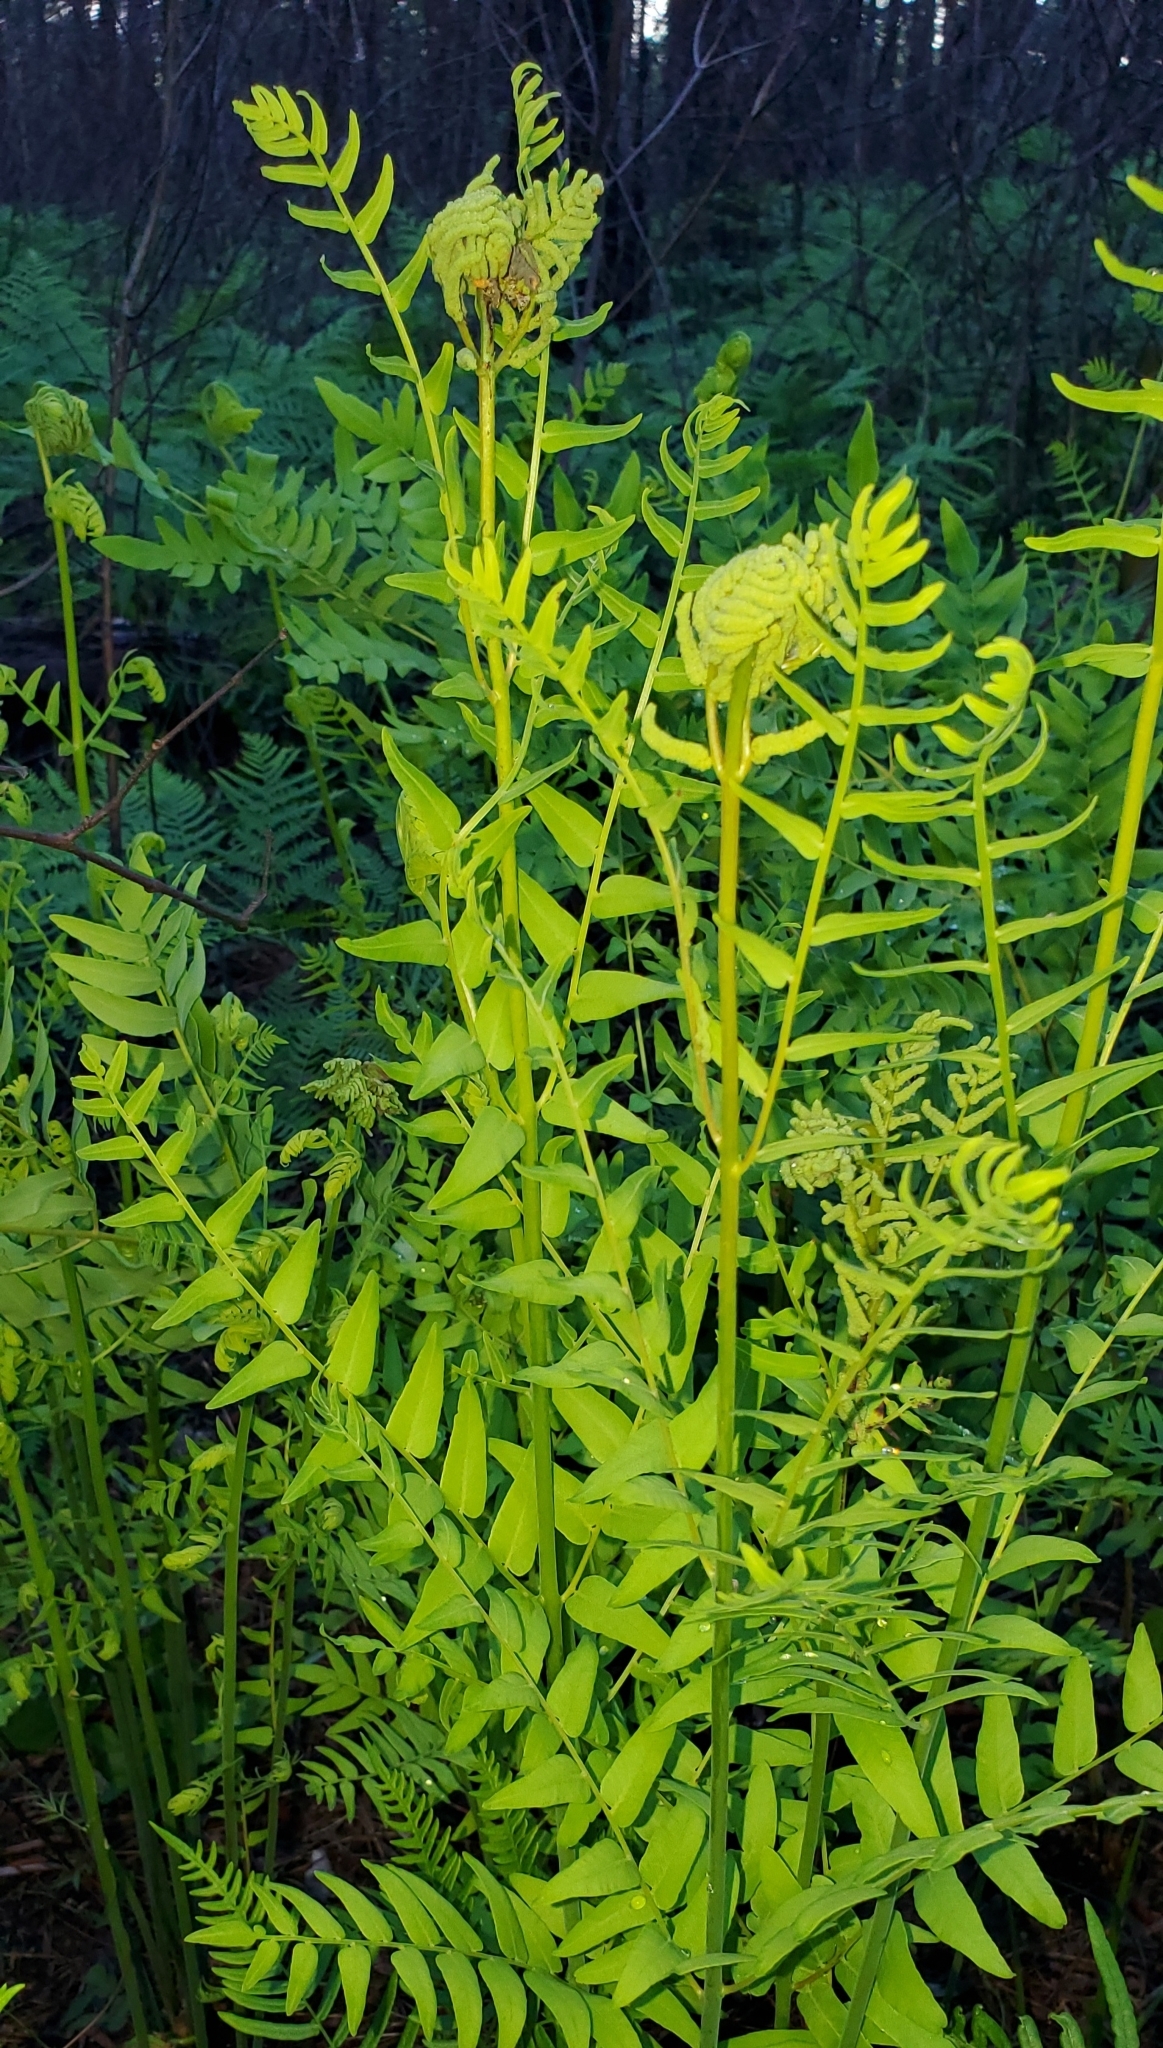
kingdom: Plantae
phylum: Tracheophyta
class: Polypodiopsida
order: Osmundales
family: Osmundaceae
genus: Osmunda
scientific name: Osmunda spectabilis
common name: American royal fern
